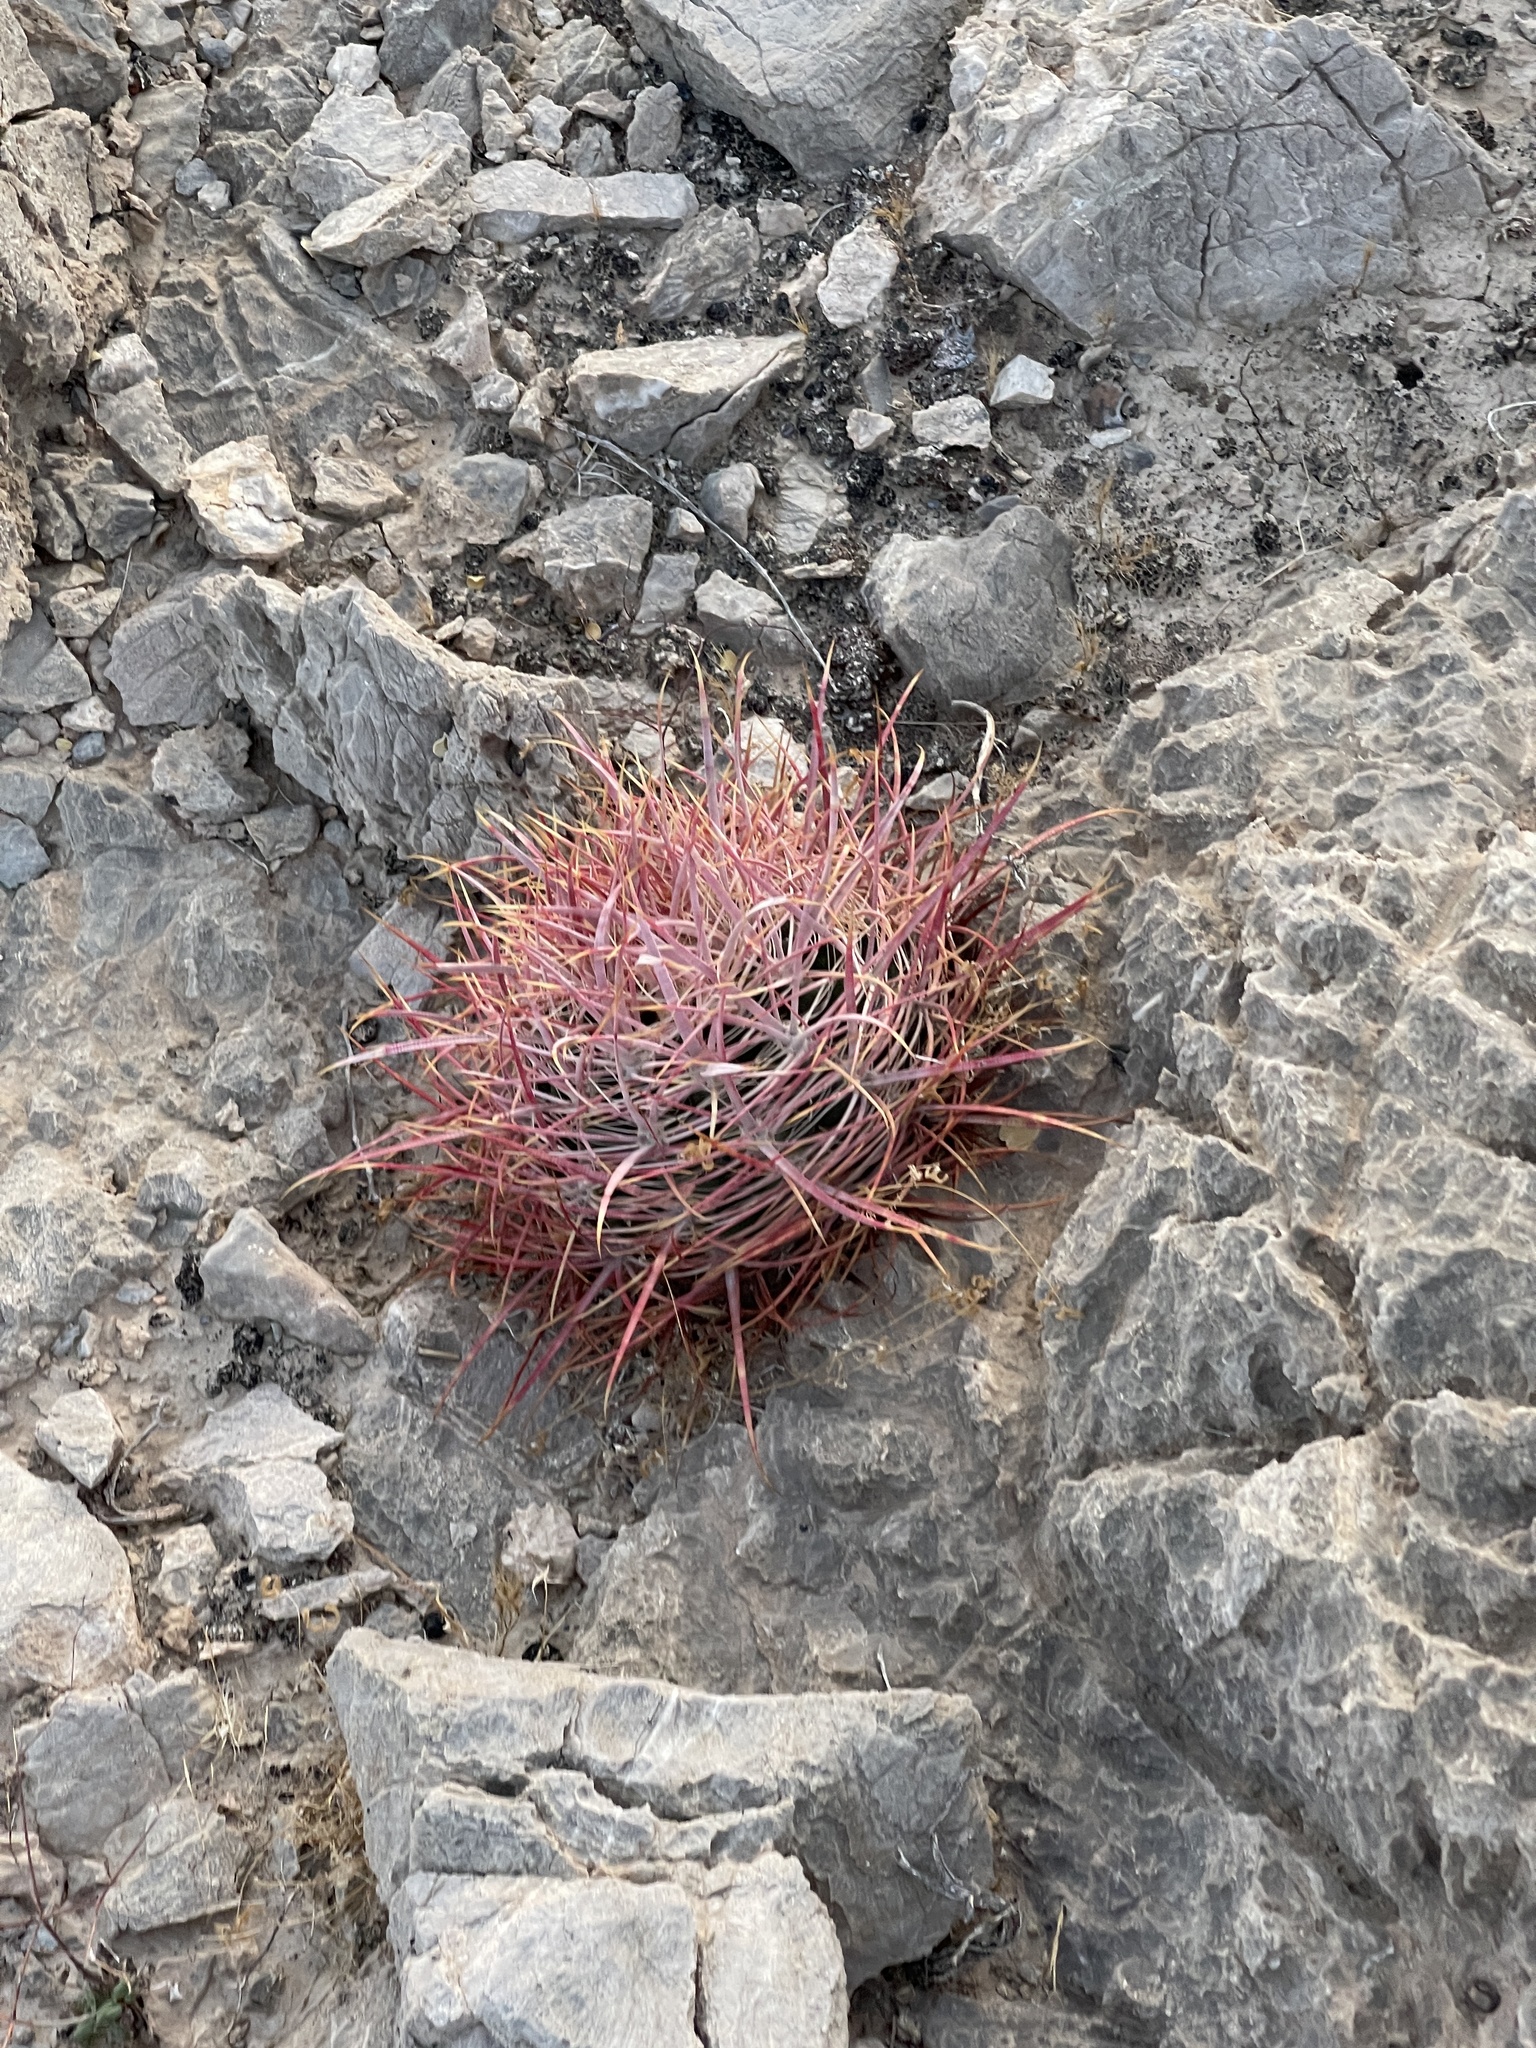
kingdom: Plantae
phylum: Tracheophyta
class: Magnoliopsida
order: Caryophyllales
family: Cactaceae
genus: Ferocactus
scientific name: Ferocactus cylindraceus
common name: California barrel cactus
